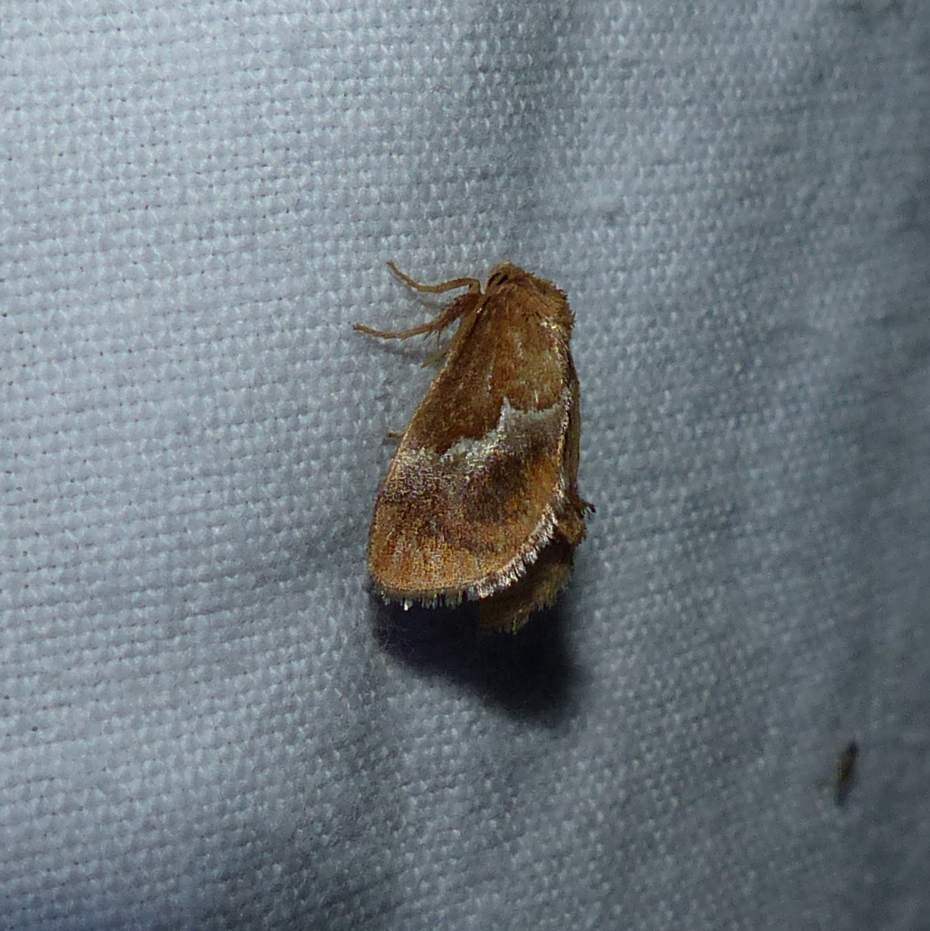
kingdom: Animalia
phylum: Arthropoda
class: Insecta
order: Lepidoptera
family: Limacodidae
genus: Lithacodes
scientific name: Lithacodes fasciola
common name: Yellow-shouldered slug moth
